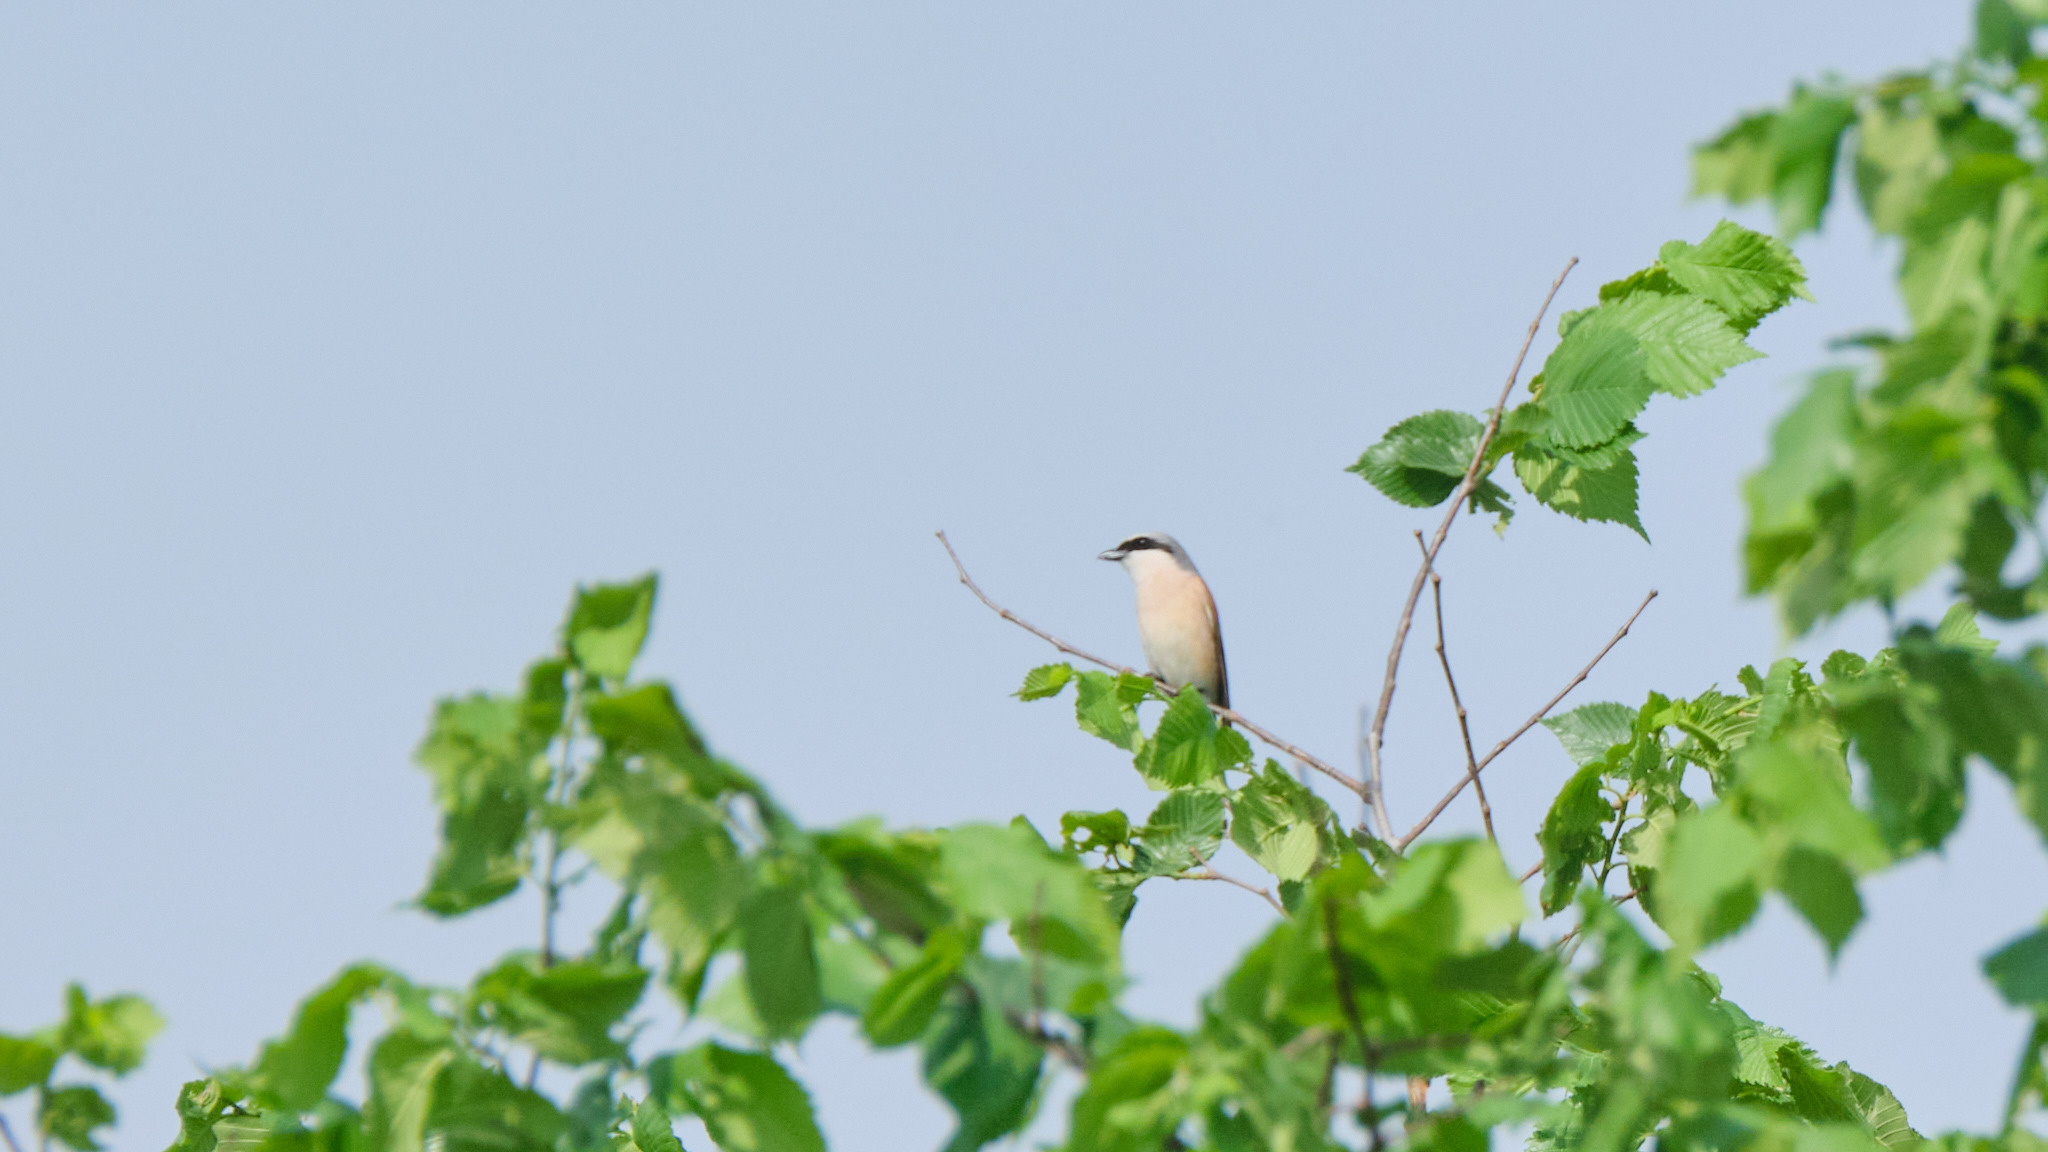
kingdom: Animalia
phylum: Chordata
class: Aves
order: Passeriformes
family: Laniidae
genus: Lanius
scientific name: Lanius collurio
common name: Red-backed shrike
